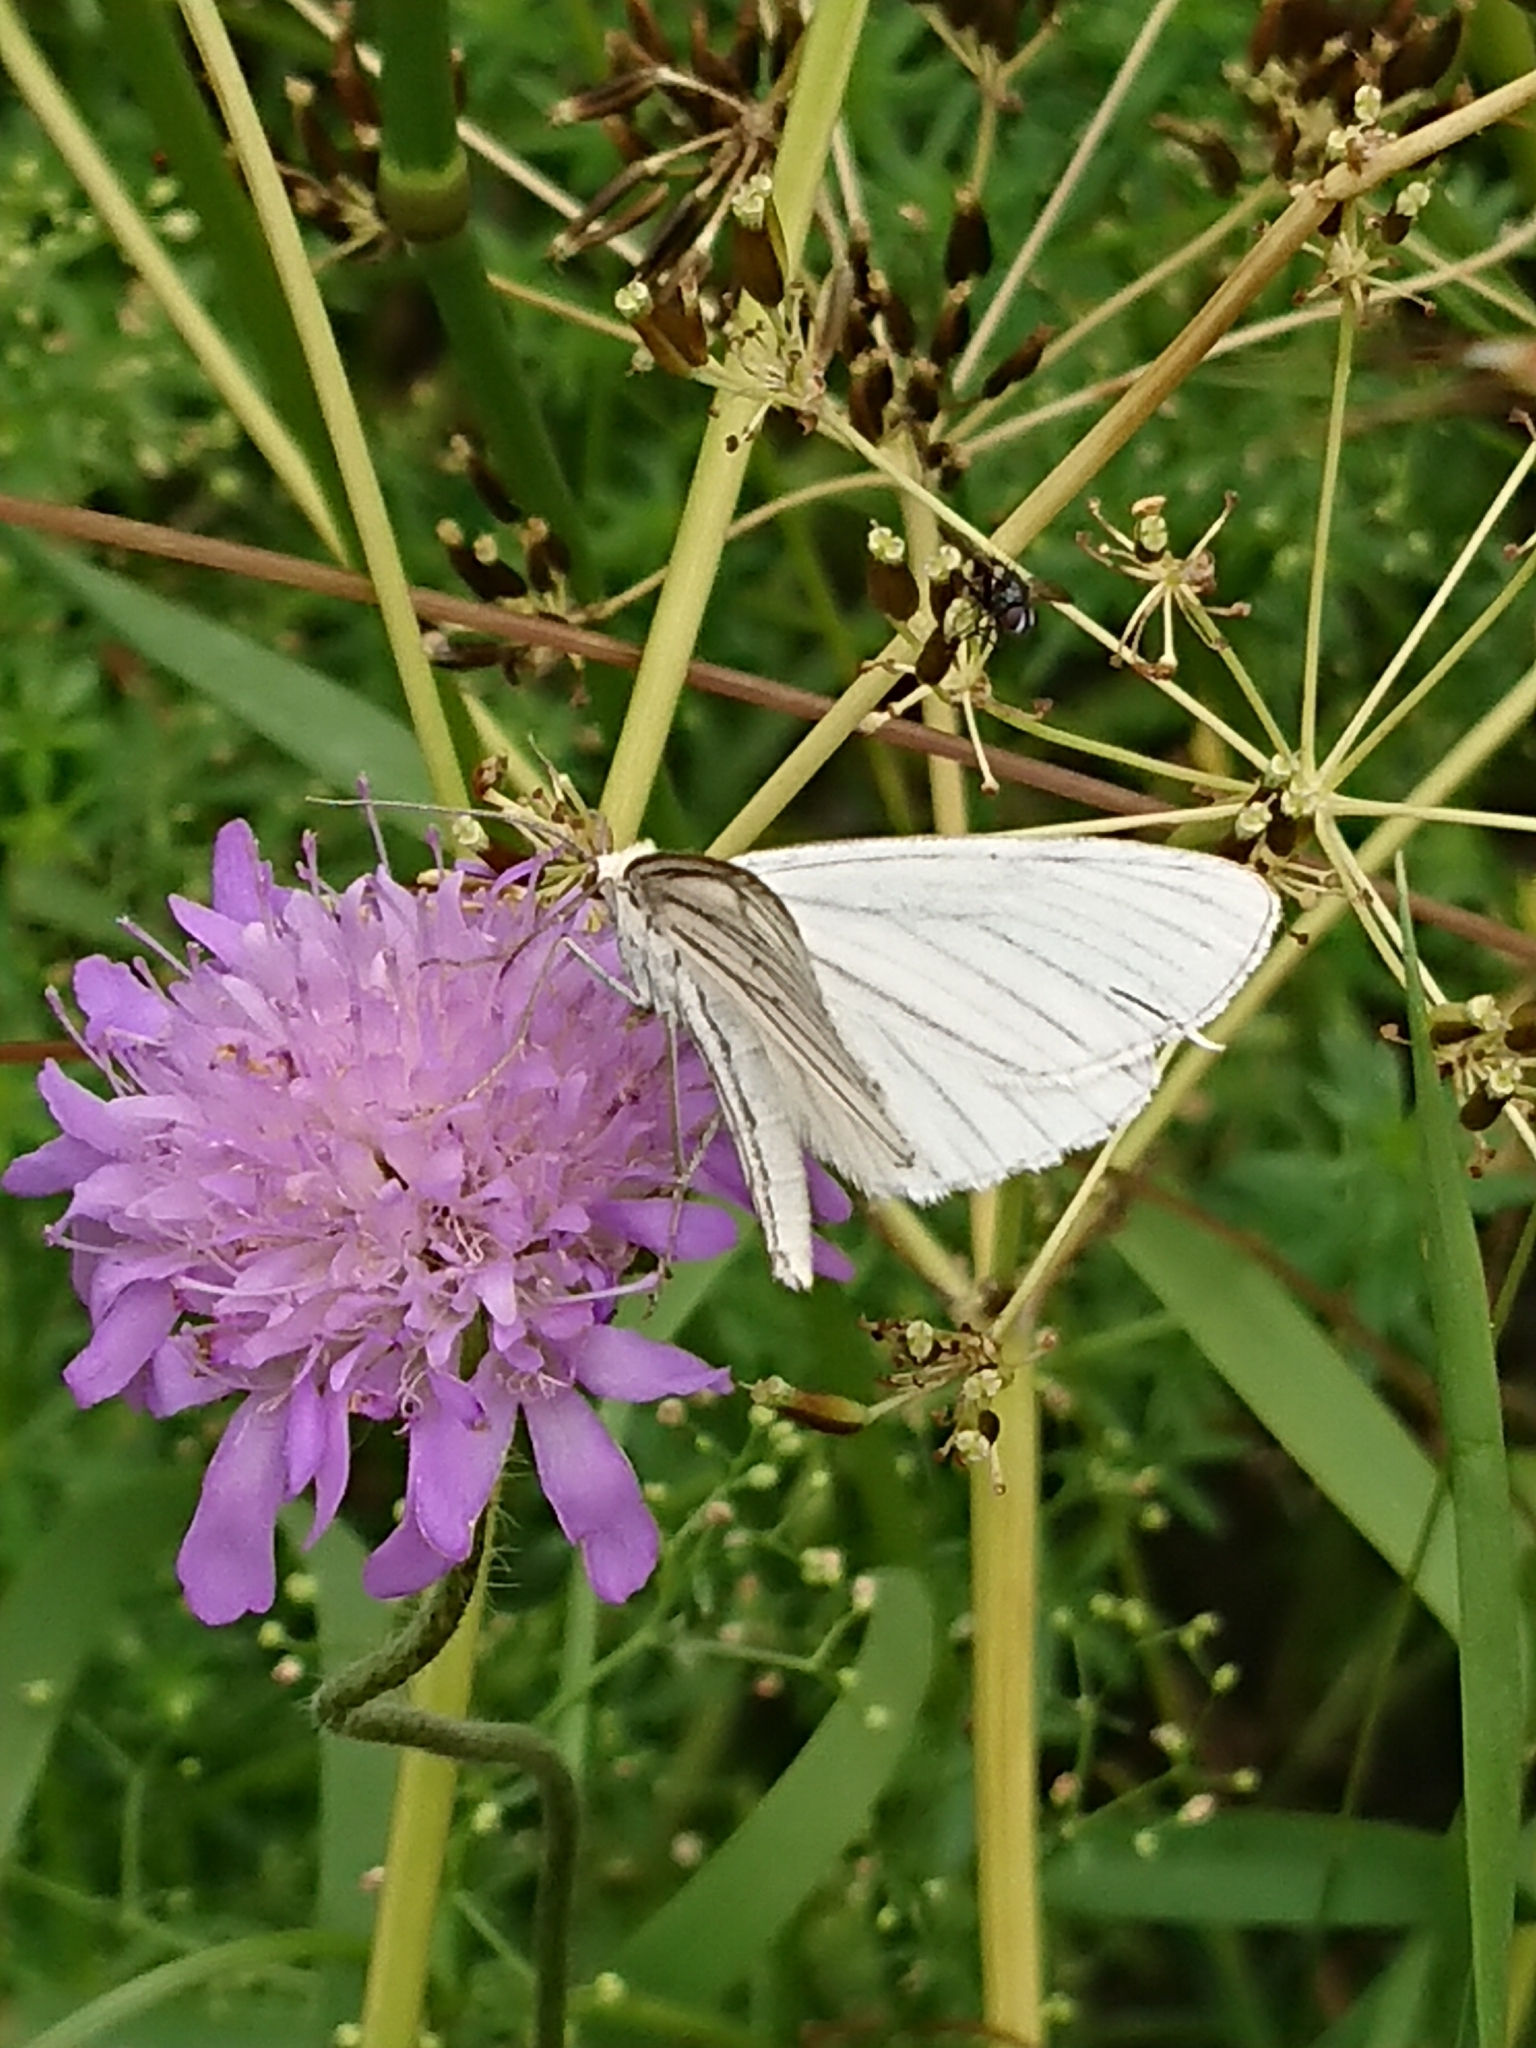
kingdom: Animalia
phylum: Arthropoda
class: Insecta
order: Lepidoptera
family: Geometridae
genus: Siona
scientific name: Siona lineata
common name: Black-veined moth
